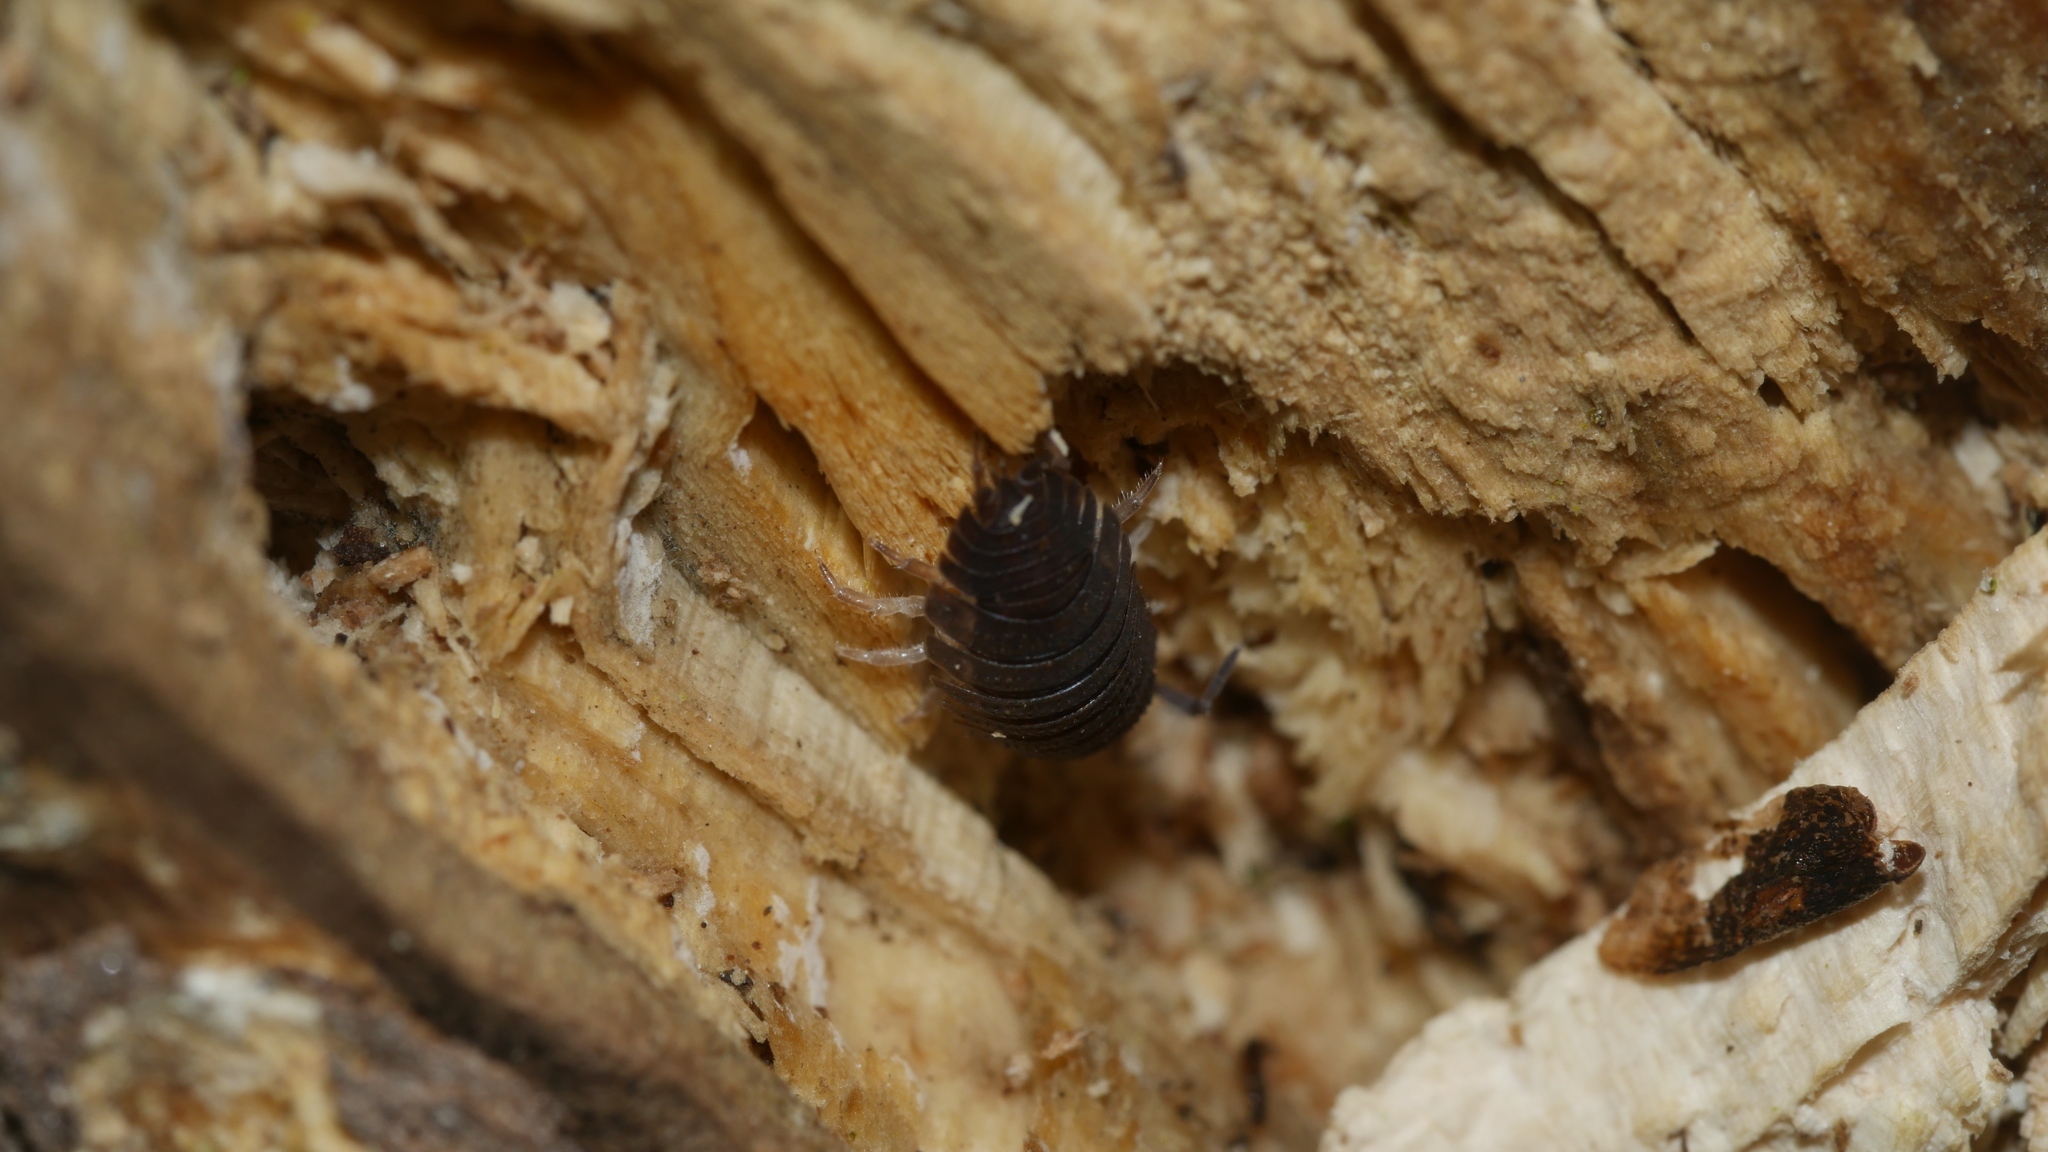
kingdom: Animalia
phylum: Arthropoda
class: Malacostraca
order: Isopoda
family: Porcellionidae
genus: Porcellio
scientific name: Porcellio scaber
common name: Common rough woodlouse
